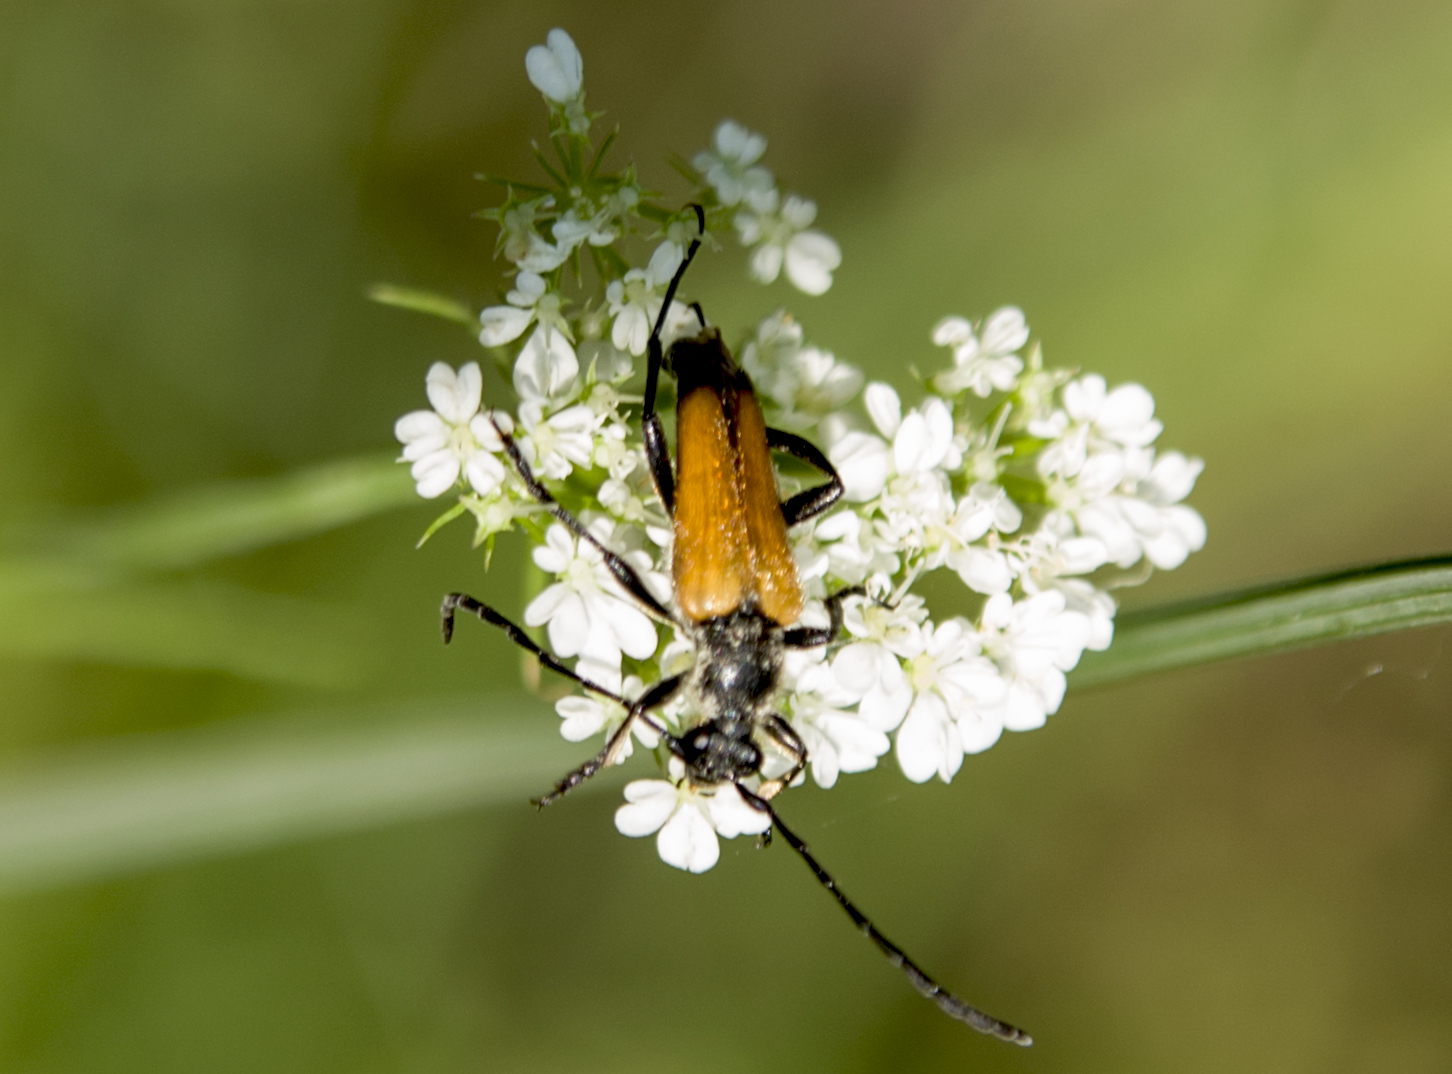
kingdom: Animalia
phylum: Arthropoda
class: Insecta
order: Coleoptera
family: Cerambycidae
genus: Paracorymbia
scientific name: Paracorymbia fulva
